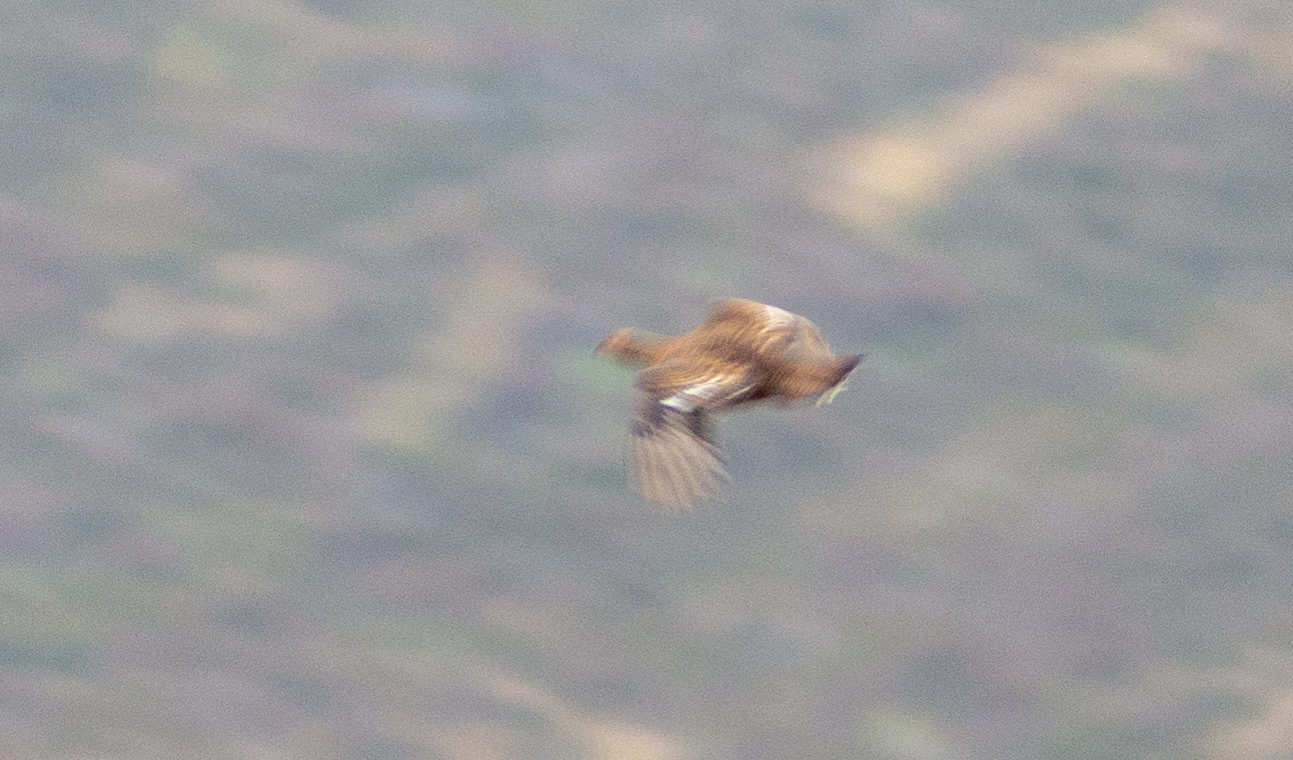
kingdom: Animalia
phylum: Chordata
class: Aves
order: Galliformes
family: Phasianidae
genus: Lyrurus
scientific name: Lyrurus tetrix
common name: Black grouse
